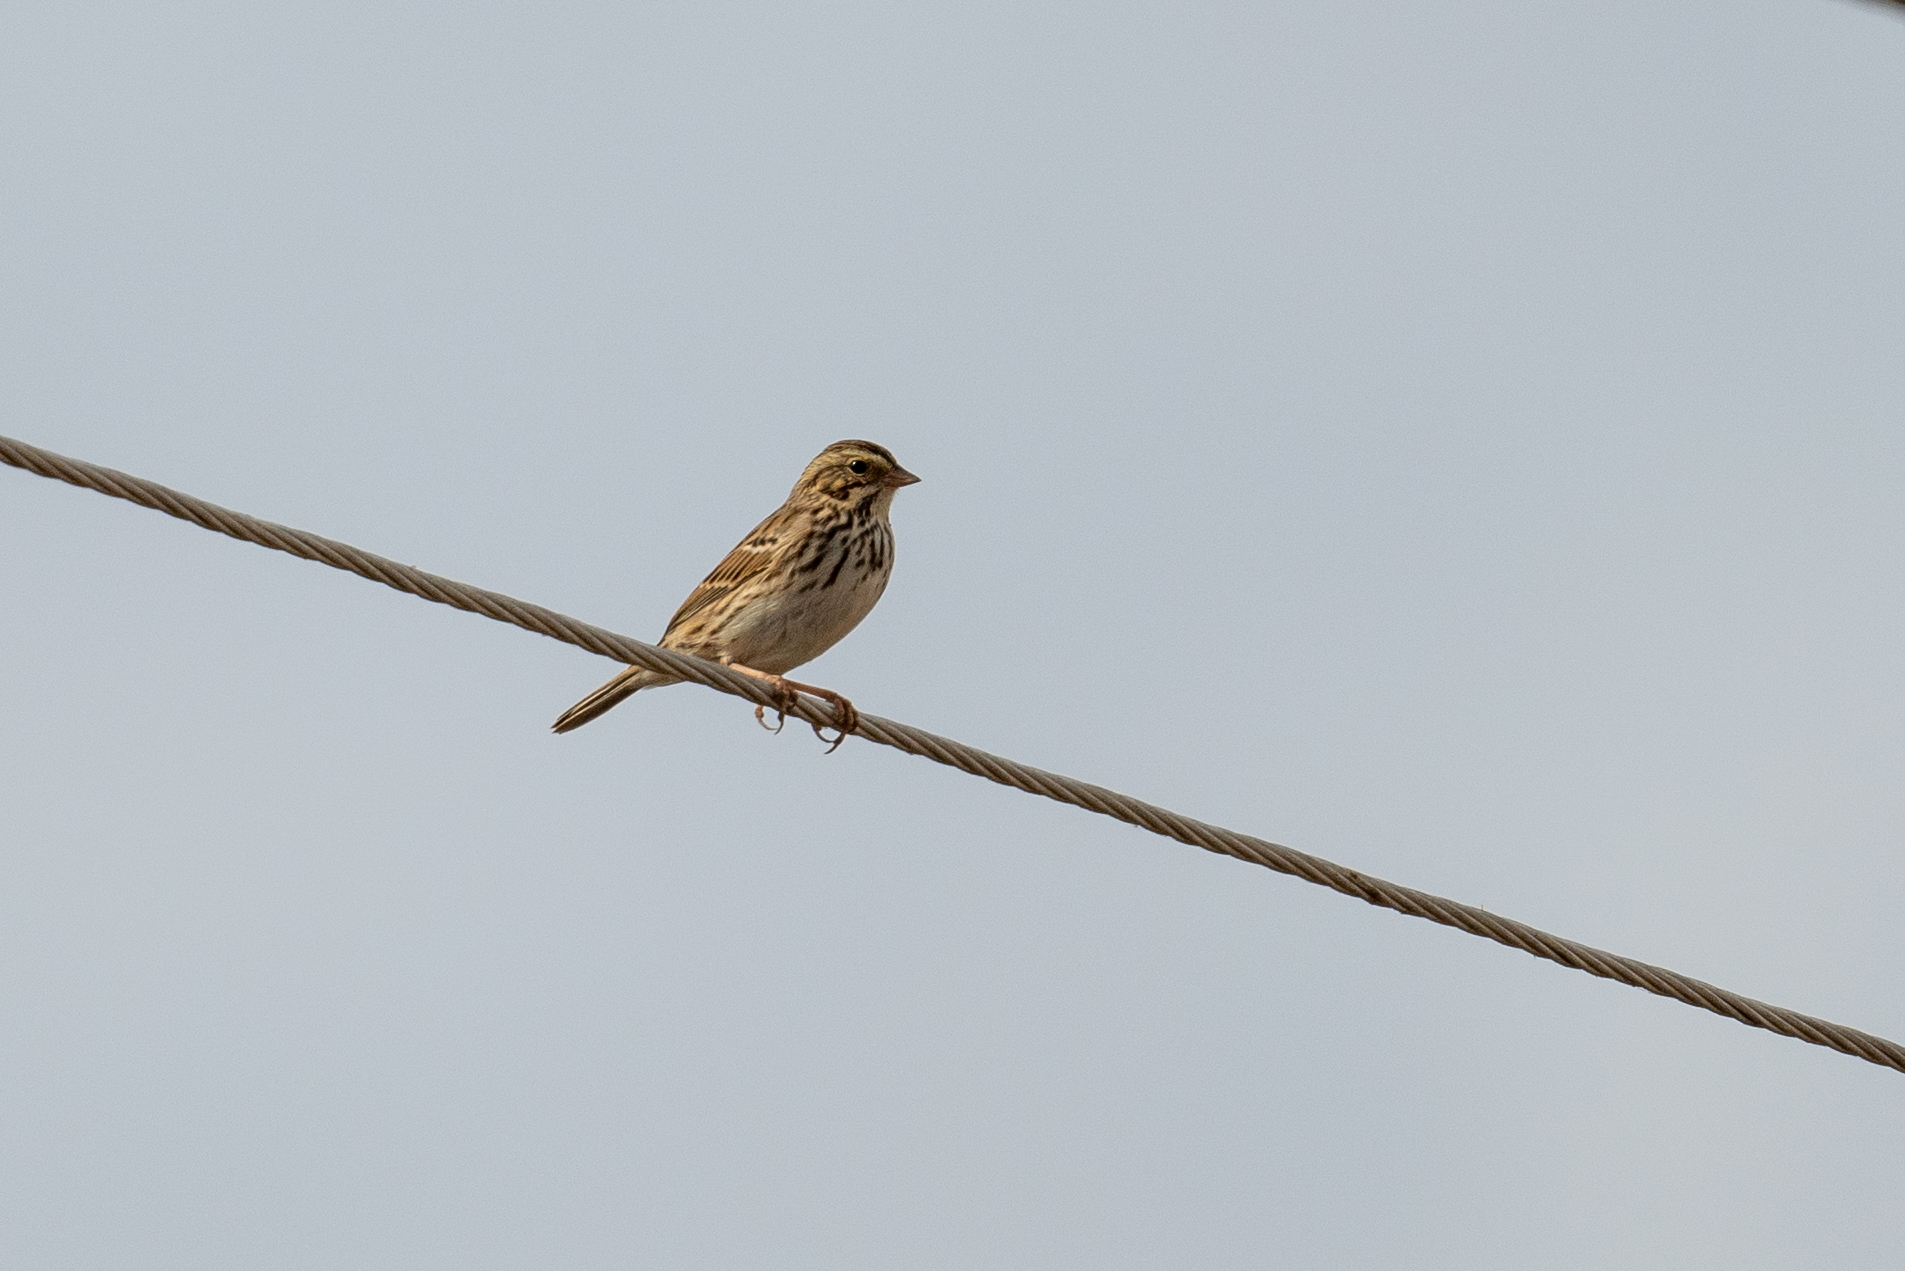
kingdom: Animalia
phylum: Chordata
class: Aves
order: Passeriformes
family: Passerellidae
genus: Passerculus
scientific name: Passerculus sandwichensis
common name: Savannah sparrow
